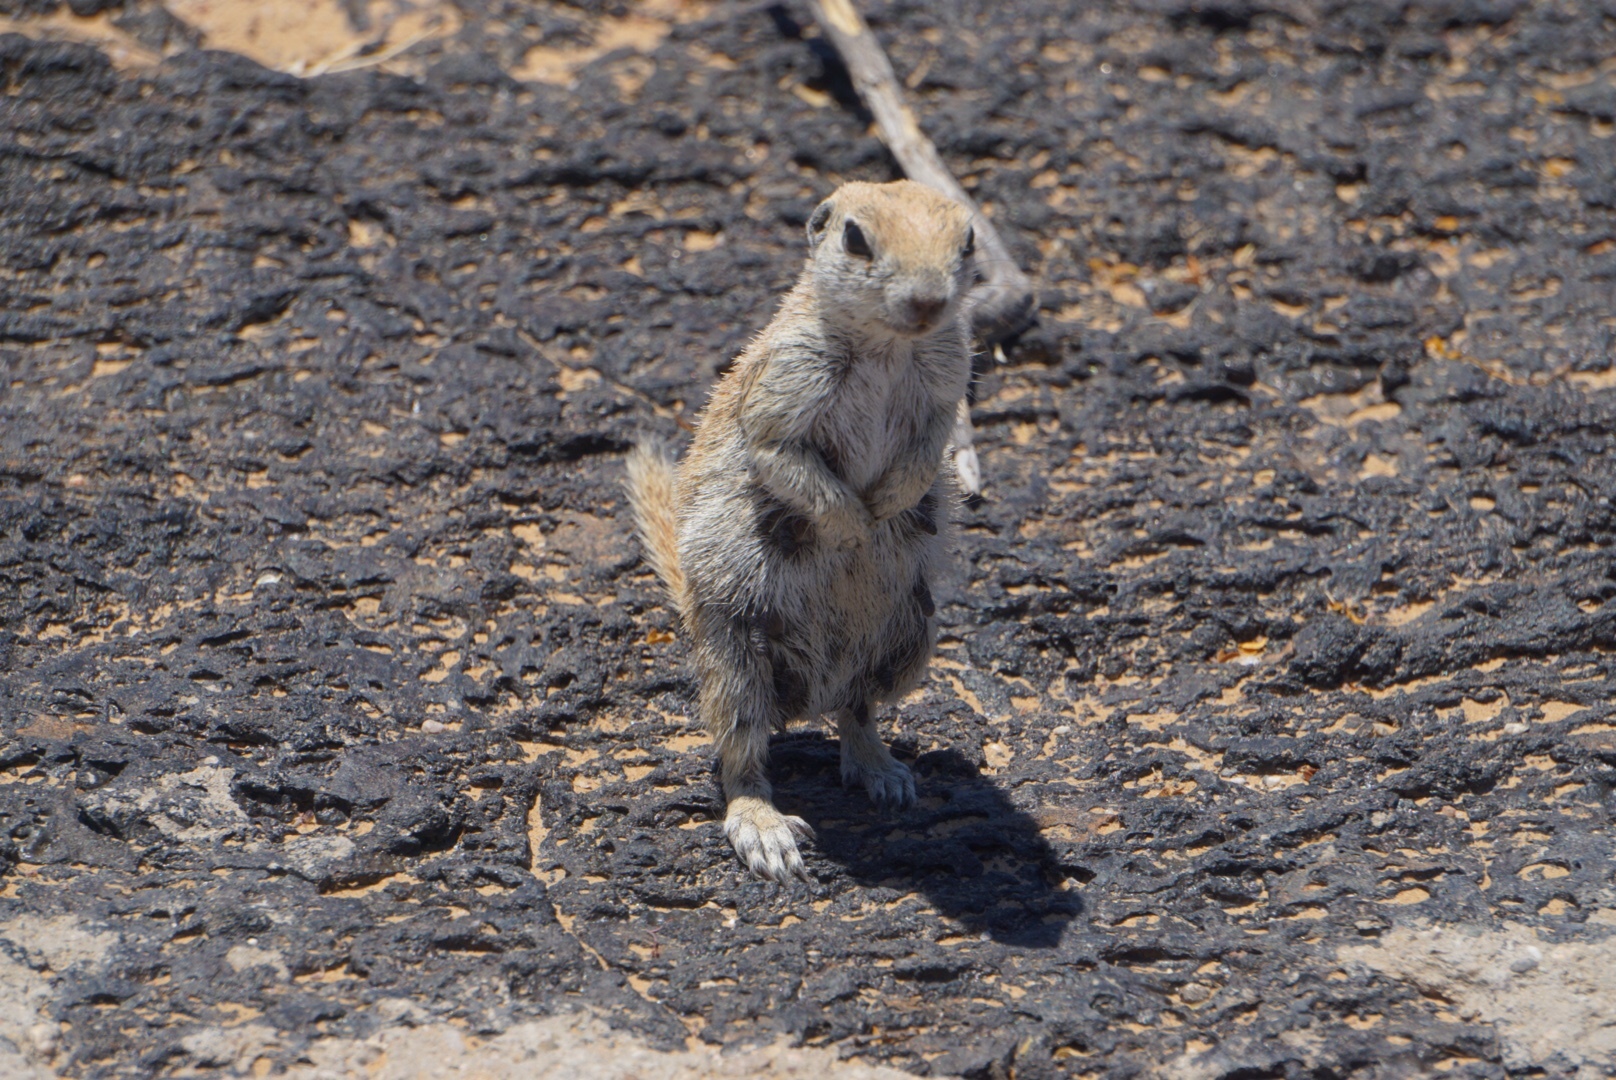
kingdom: Animalia
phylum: Chordata
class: Mammalia
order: Rodentia
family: Sciuridae
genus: Xerospermophilus
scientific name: Xerospermophilus tereticaudus
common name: Round-tailed ground squirrel
